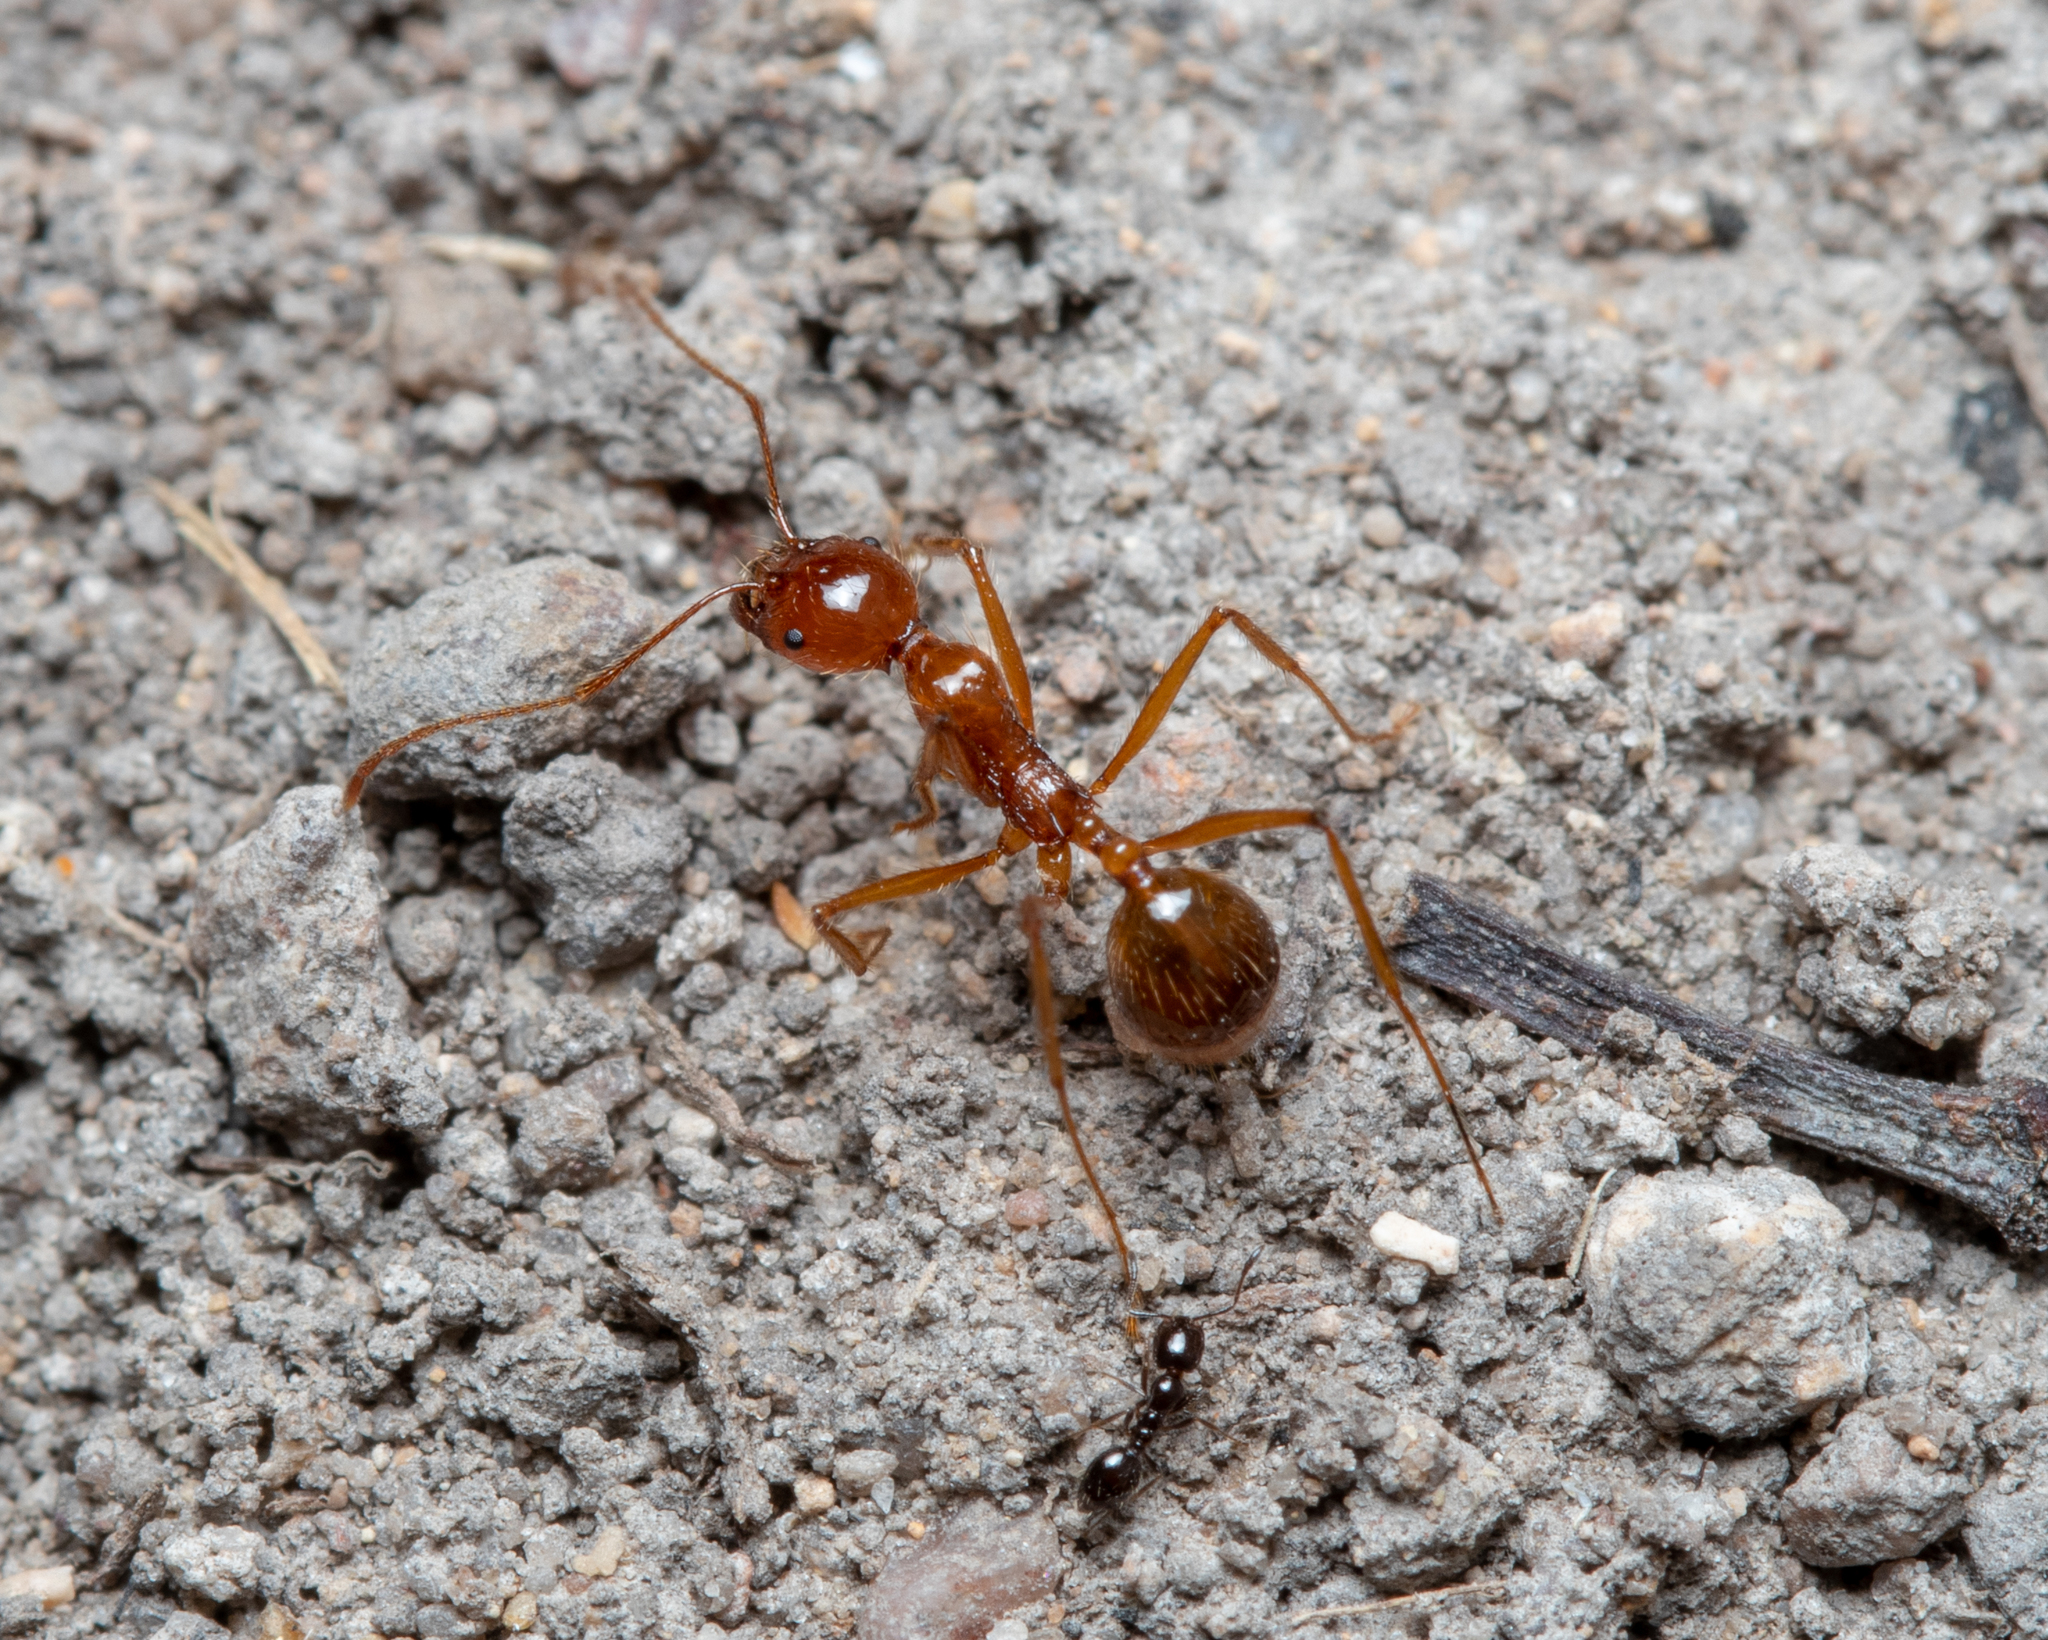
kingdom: Animalia
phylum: Arthropoda
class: Insecta
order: Hymenoptera
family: Formicidae
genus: Aphaenogaster
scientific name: Aphaenogaster longiceps
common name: Funnel ant
